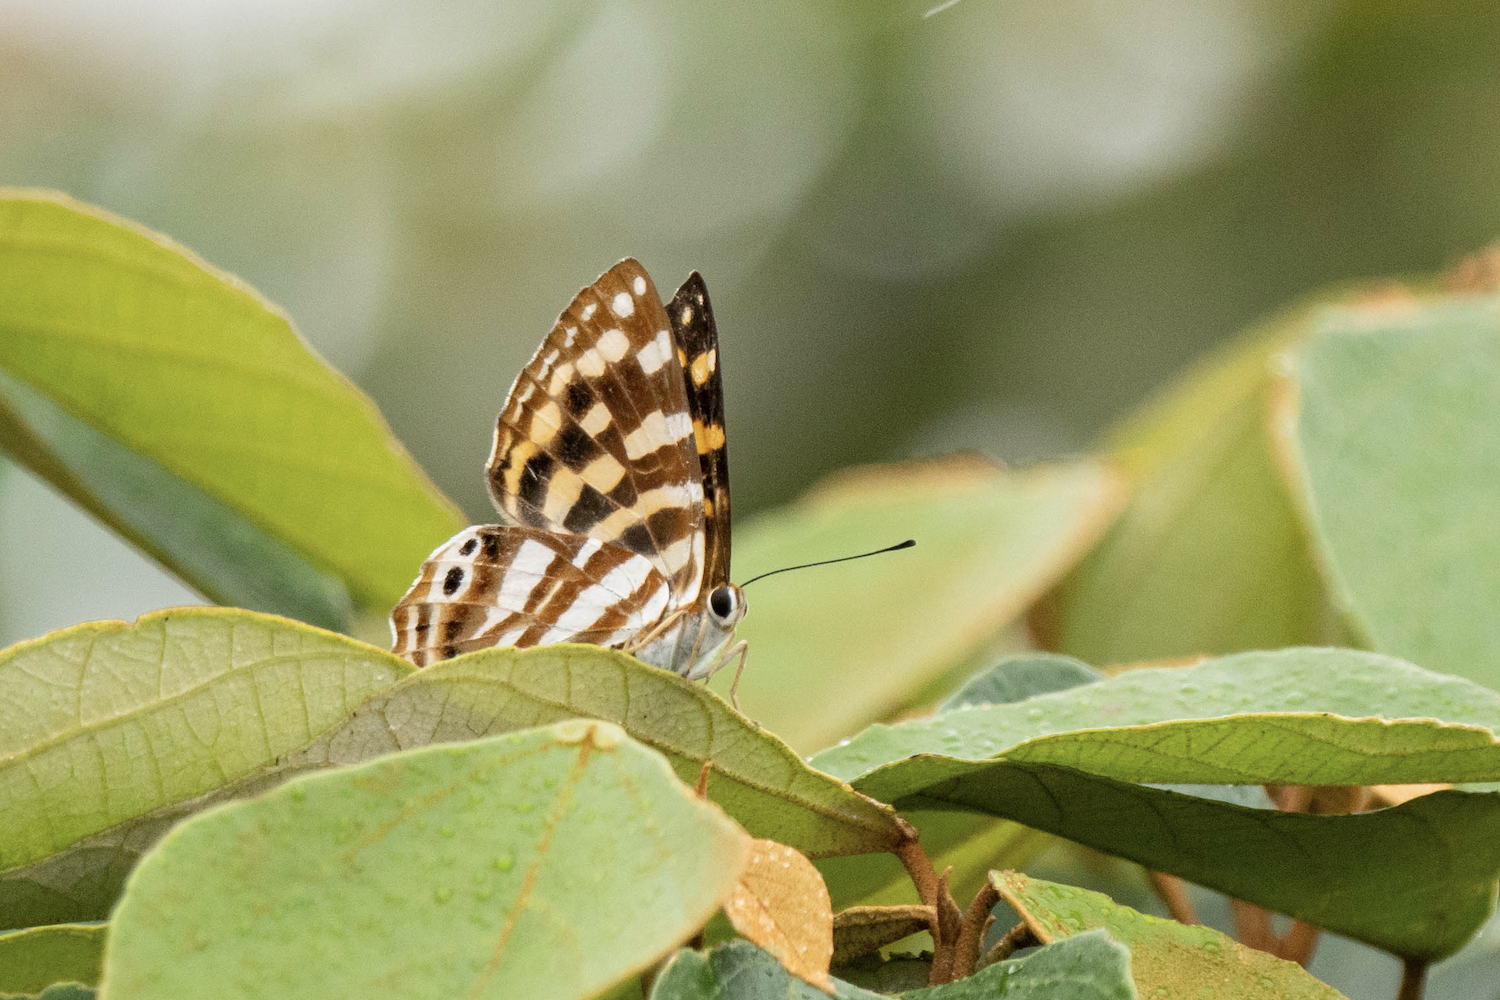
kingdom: Animalia
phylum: Arthropoda
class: Insecta
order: Lepidoptera
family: Lycaenidae
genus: Dodona
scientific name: Dodona egeon
